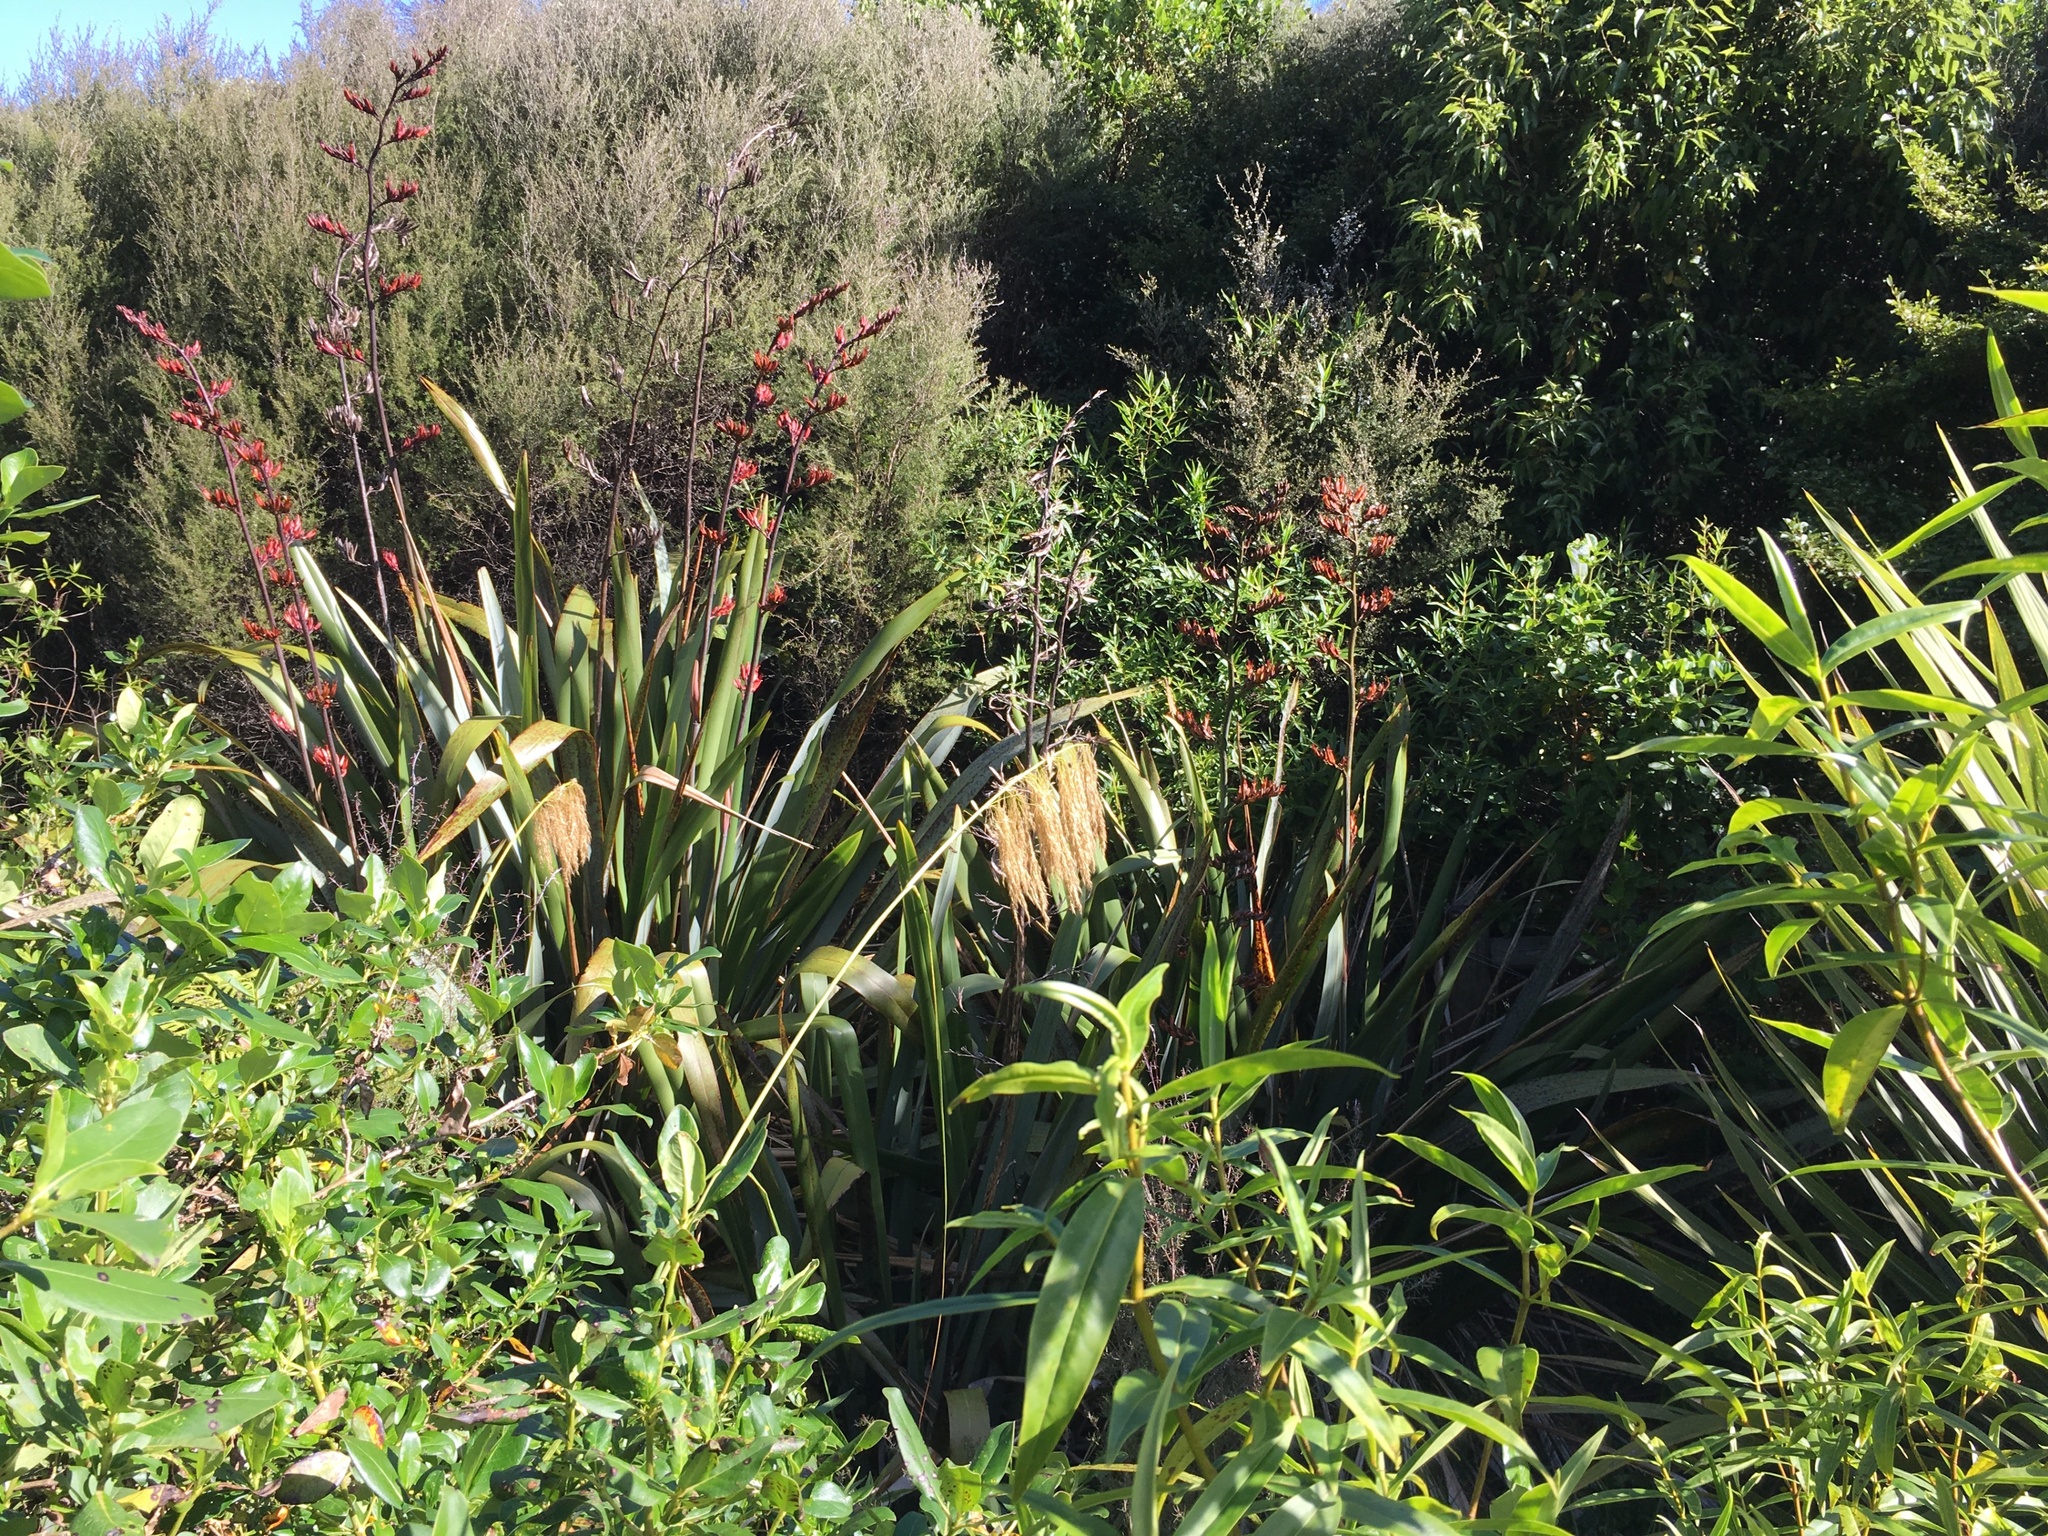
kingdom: Plantae
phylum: Tracheophyta
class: Liliopsida
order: Asparagales
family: Asphodelaceae
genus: Phormium
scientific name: Phormium tenax
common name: New zealand flax
